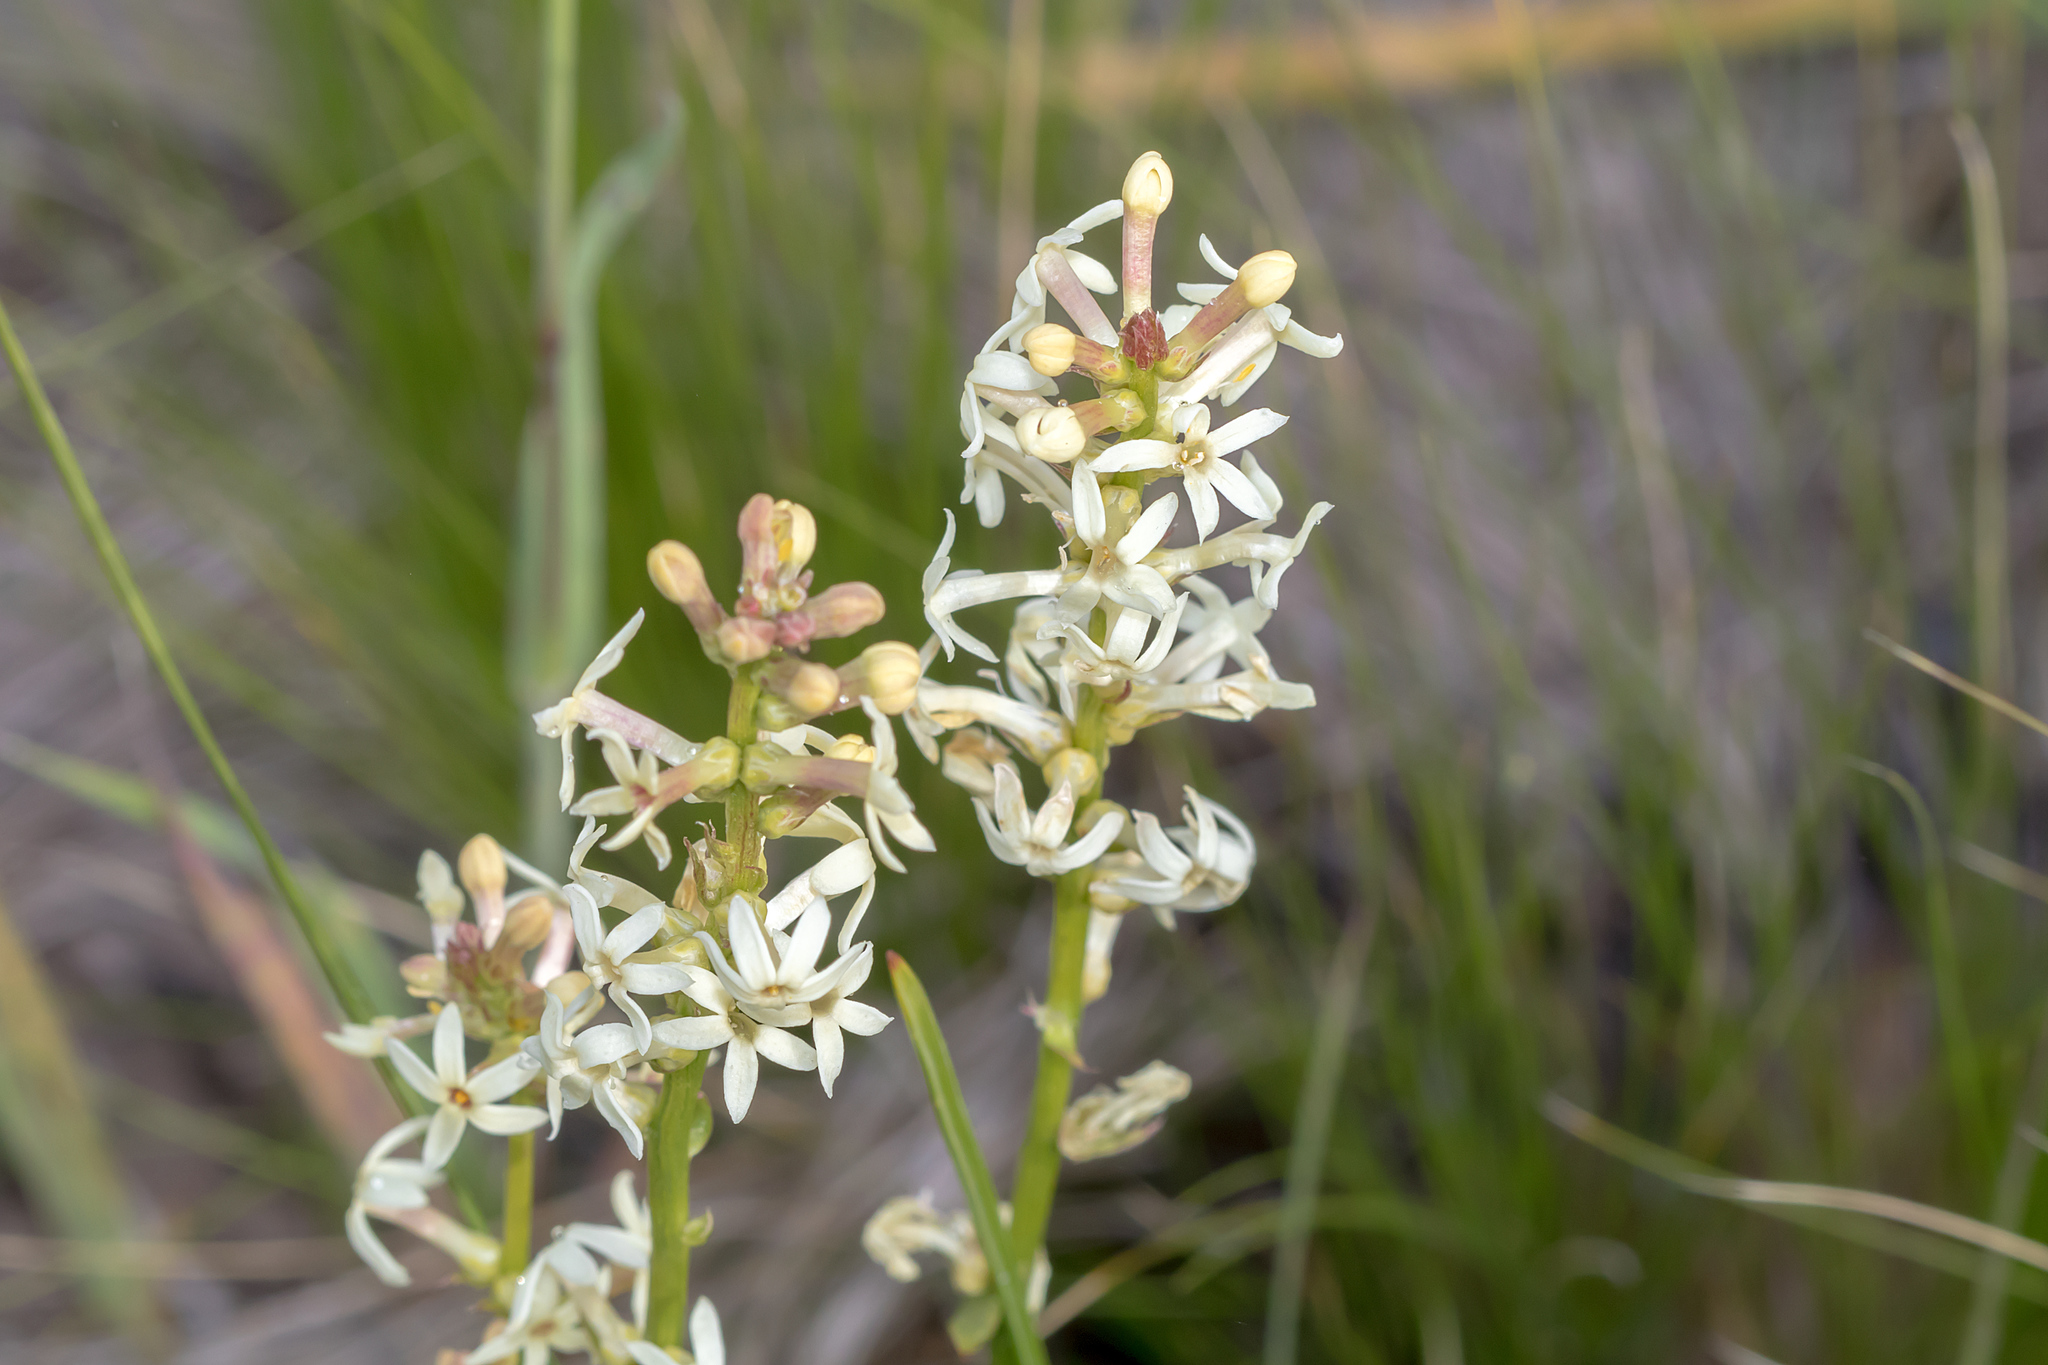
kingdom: Plantae
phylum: Tracheophyta
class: Magnoliopsida
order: Celastrales
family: Celastraceae
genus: Stackhousia
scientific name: Stackhousia monogyna
